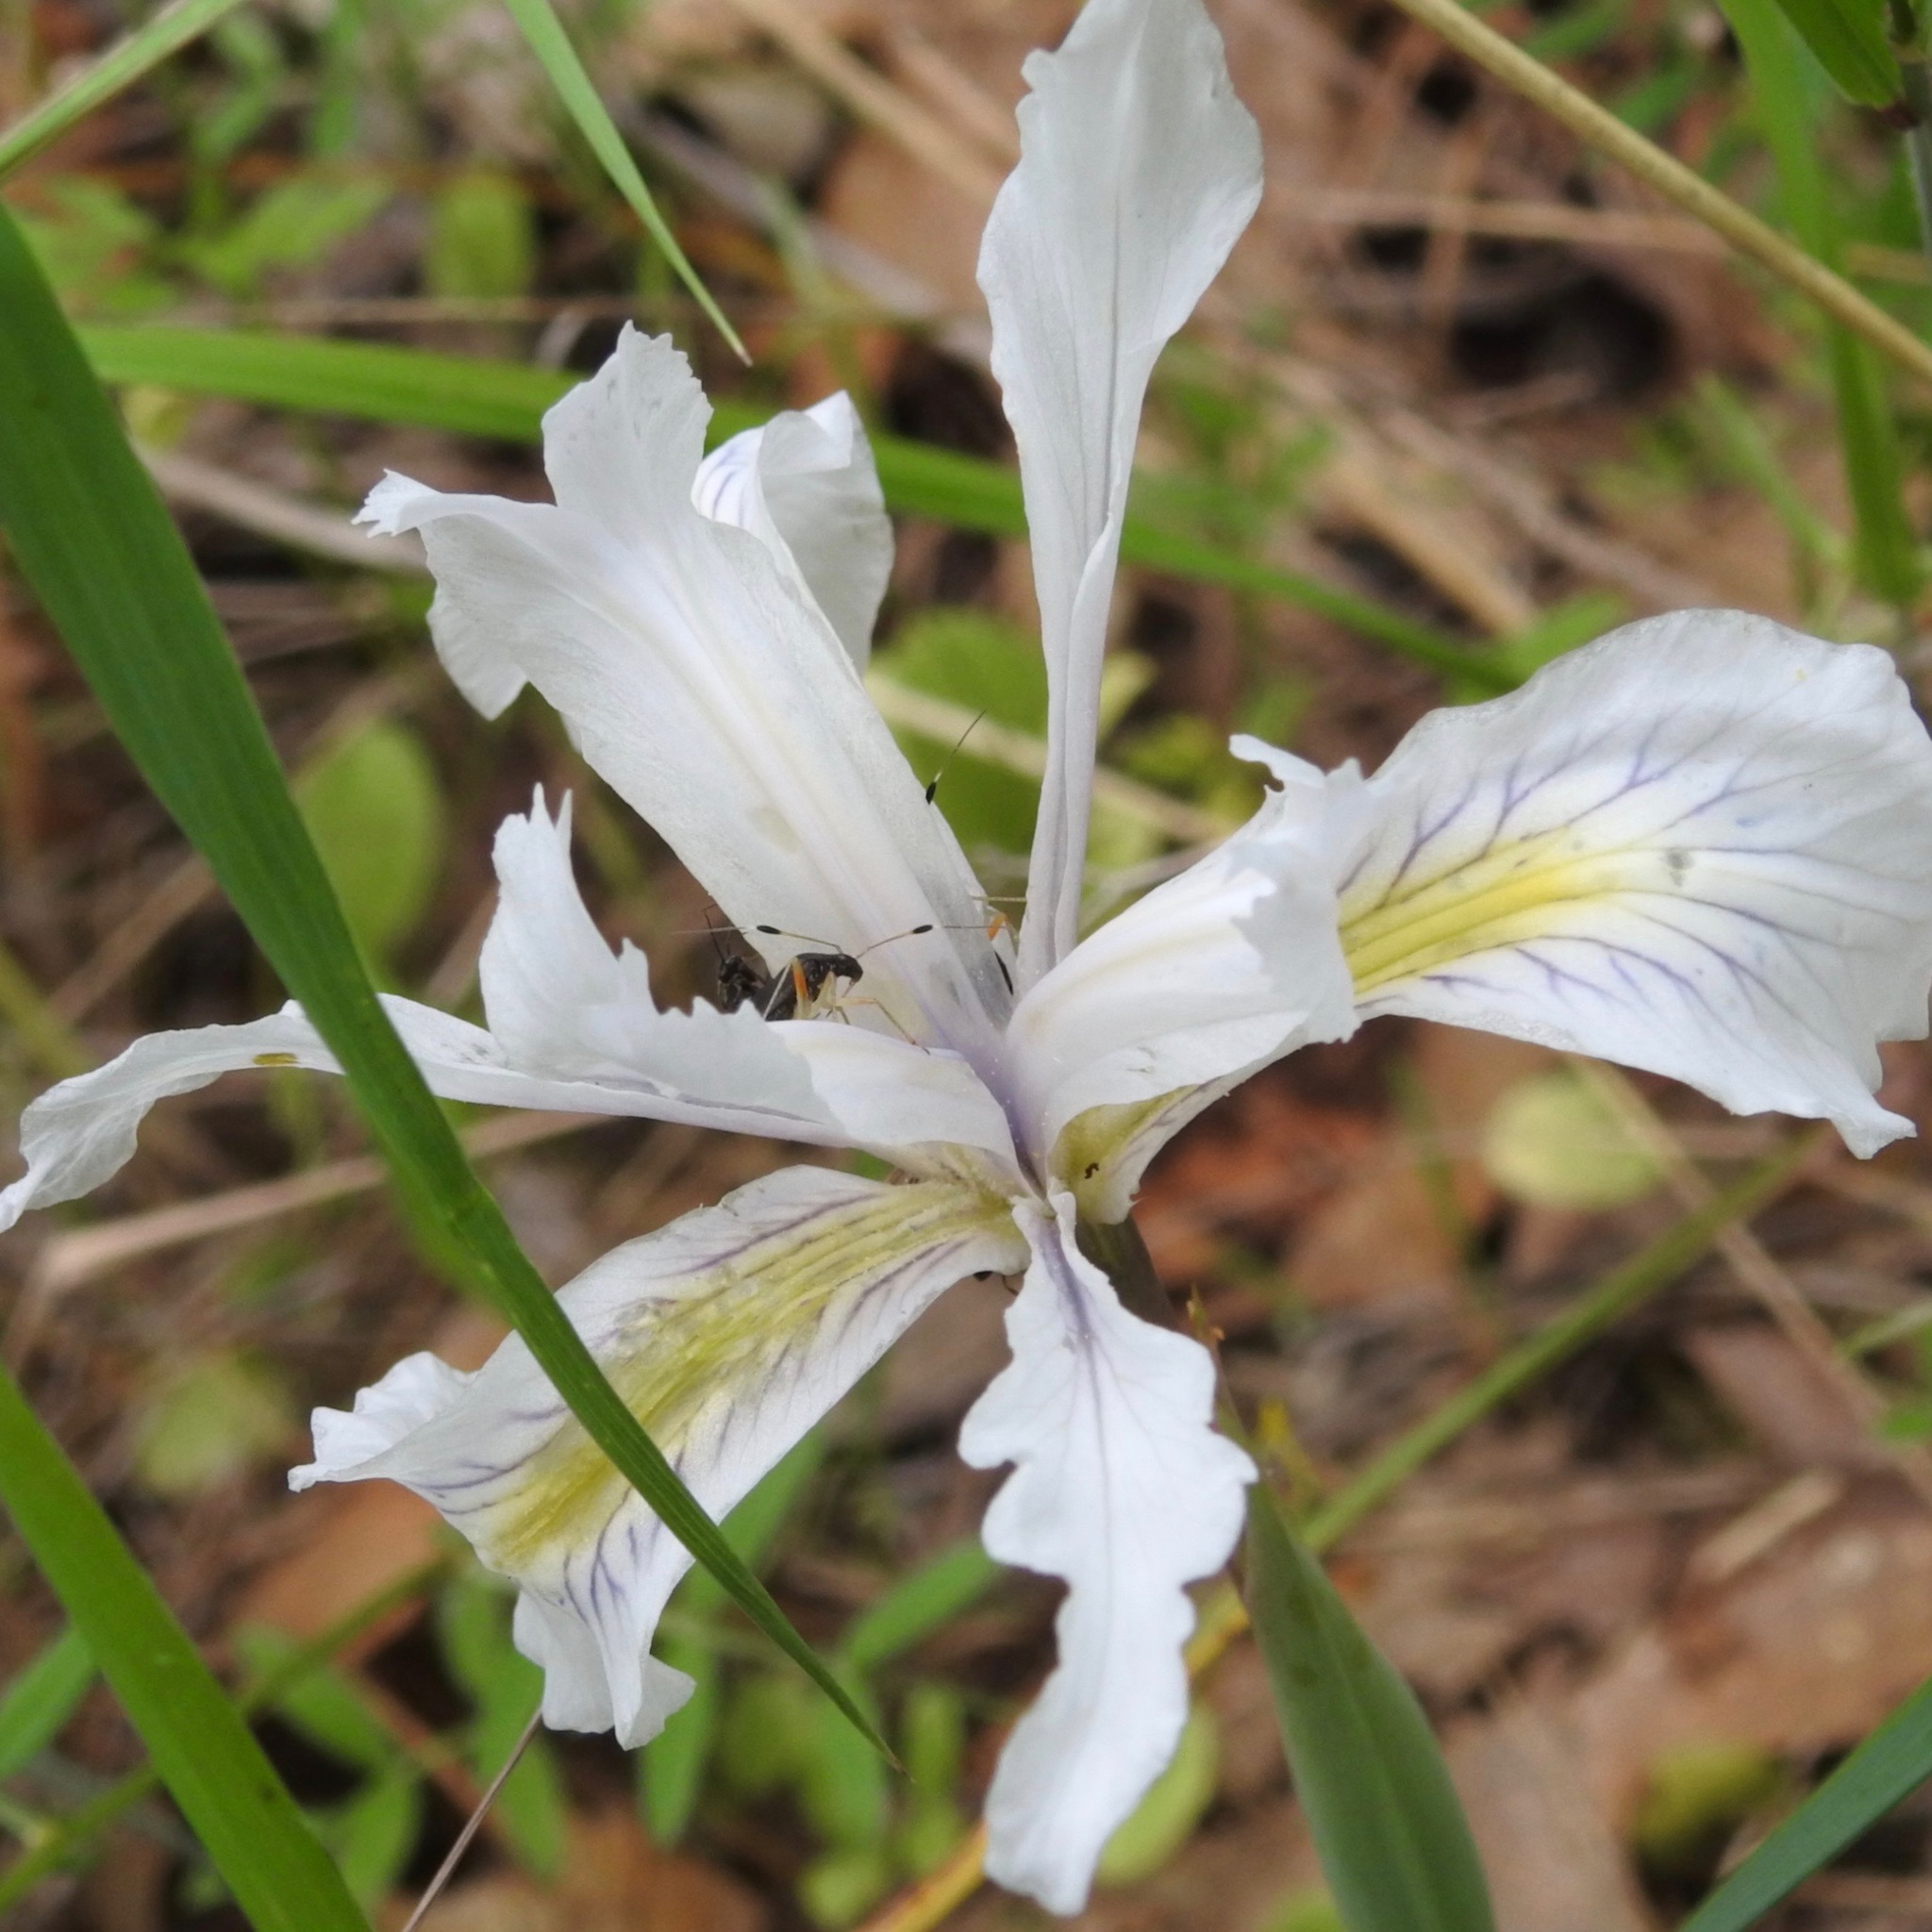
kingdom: Plantae
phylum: Tracheophyta
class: Liliopsida
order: Asparagales
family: Iridaceae
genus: Iris
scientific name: Iris macrosiphon
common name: Ground iris
